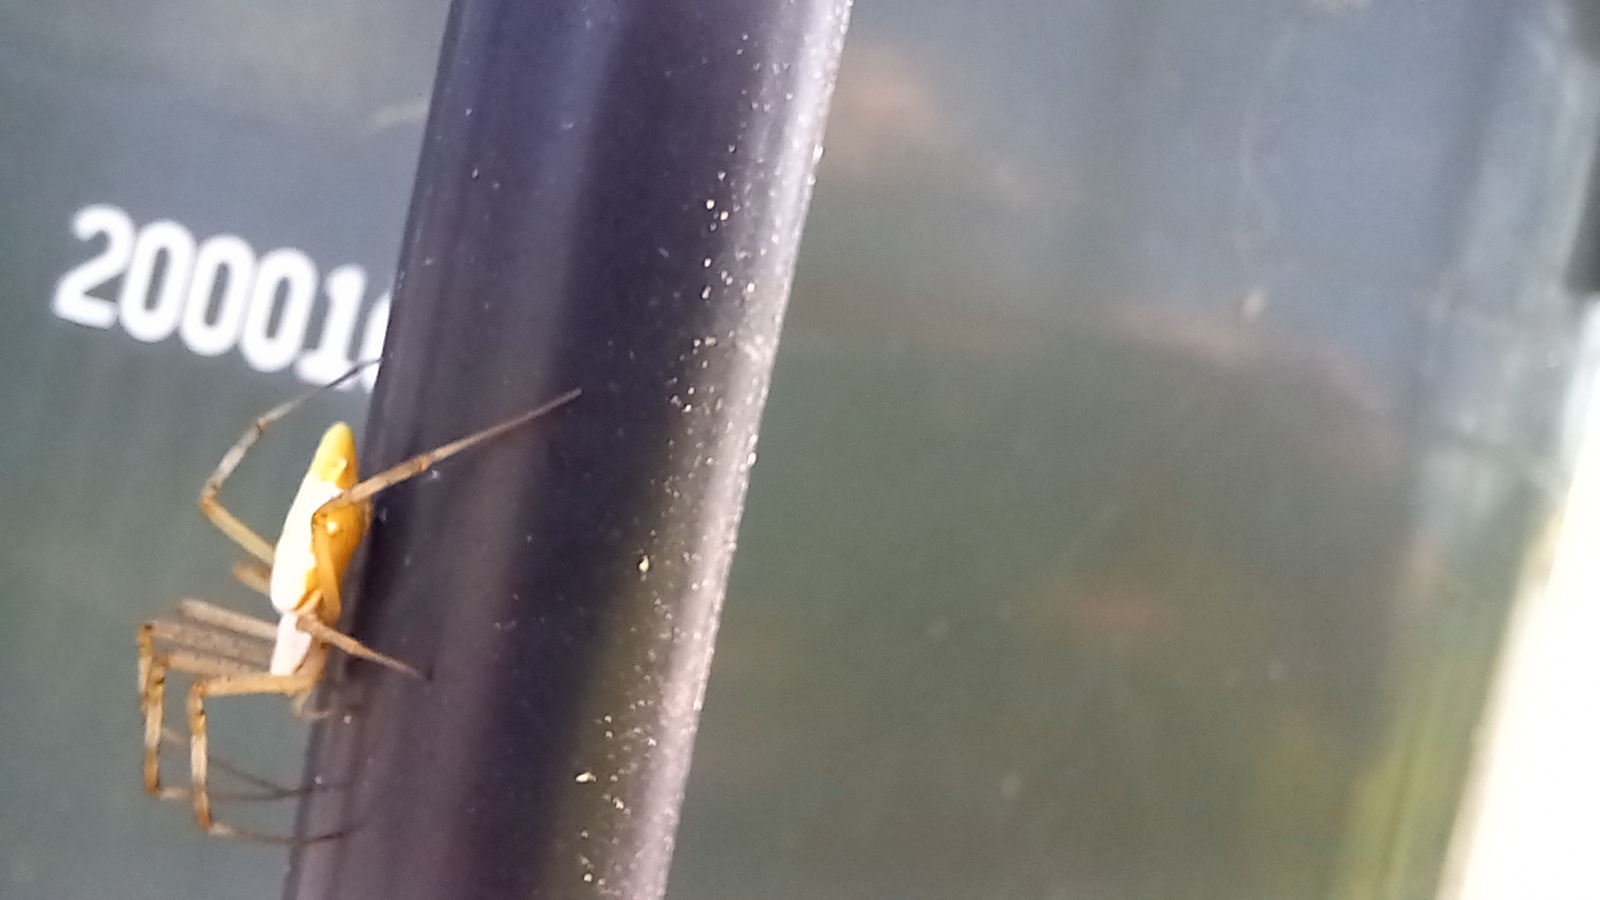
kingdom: Animalia
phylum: Arthropoda
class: Arachnida
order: Araneae
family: Araneidae
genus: Argiope
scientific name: Argiope protensa
